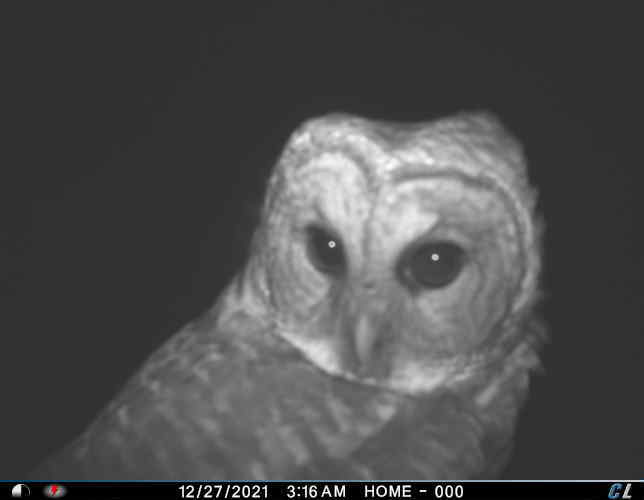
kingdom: Animalia
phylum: Chordata
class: Aves
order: Strigiformes
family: Strigidae
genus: Strix
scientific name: Strix varia
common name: Barred owl
